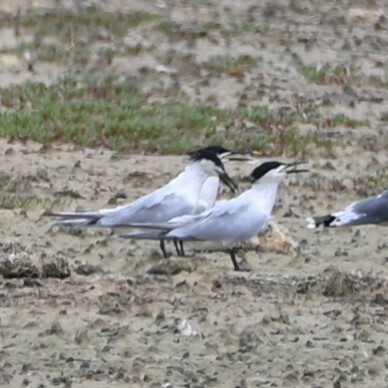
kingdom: Animalia
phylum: Chordata
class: Aves
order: Charadriiformes
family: Laridae
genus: Thalasseus
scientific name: Thalasseus sandvicensis
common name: Sandwich tern
